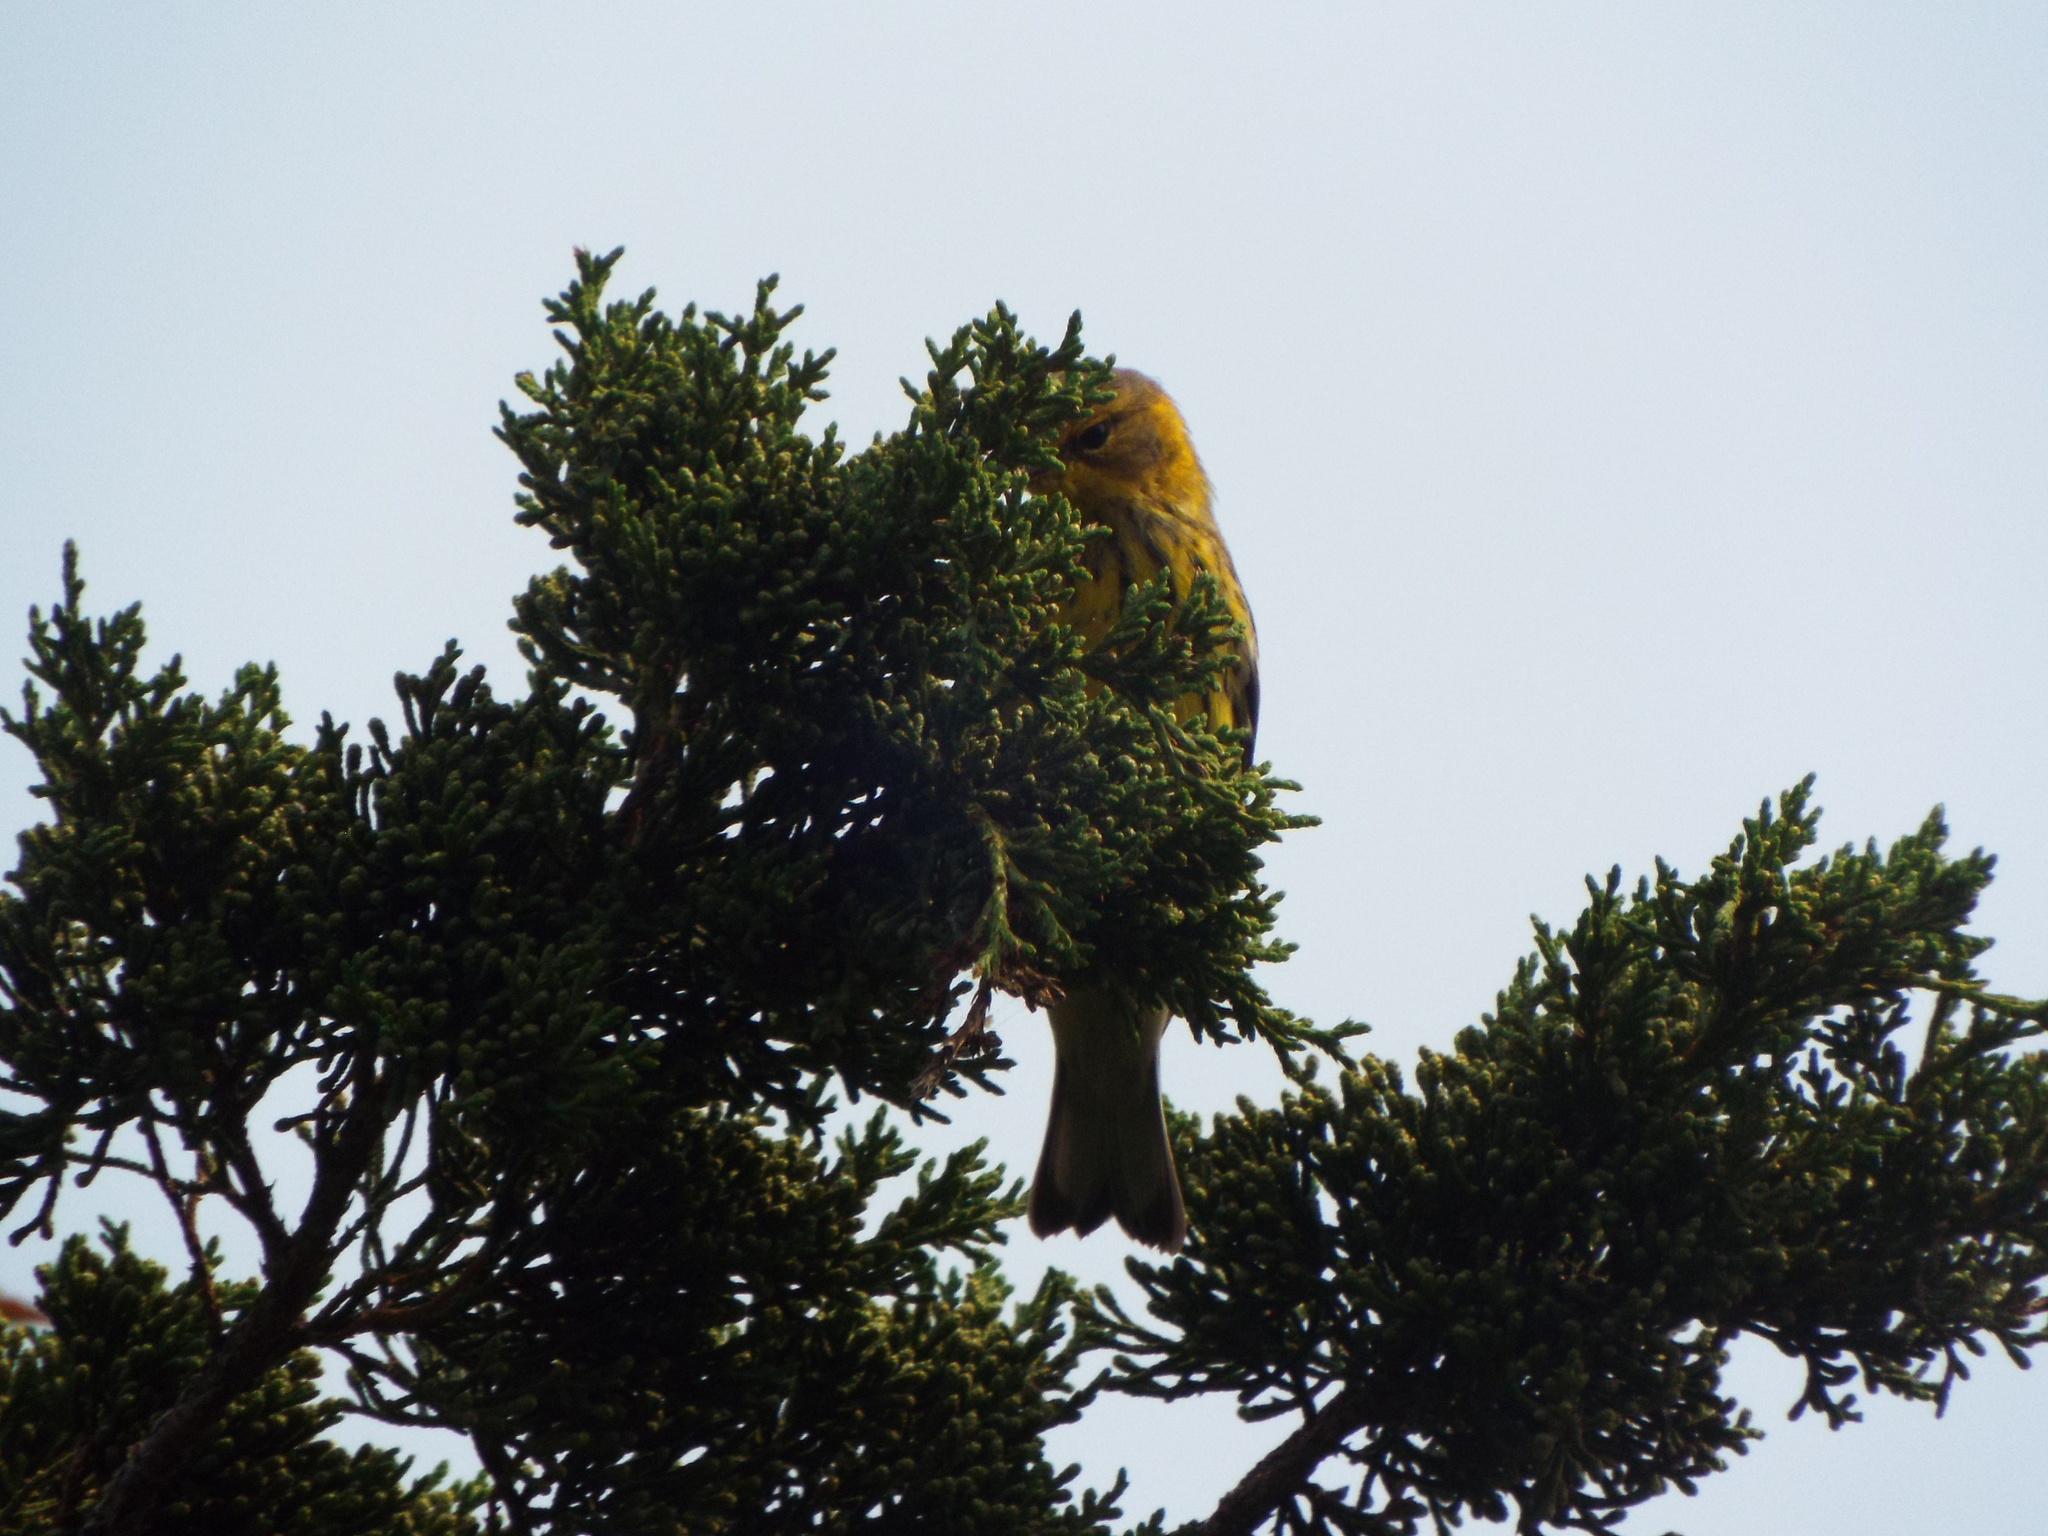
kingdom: Animalia
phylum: Chordata
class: Aves
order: Passeriformes
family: Parulidae
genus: Setophaga
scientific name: Setophaga tigrina
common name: Cape may warbler
